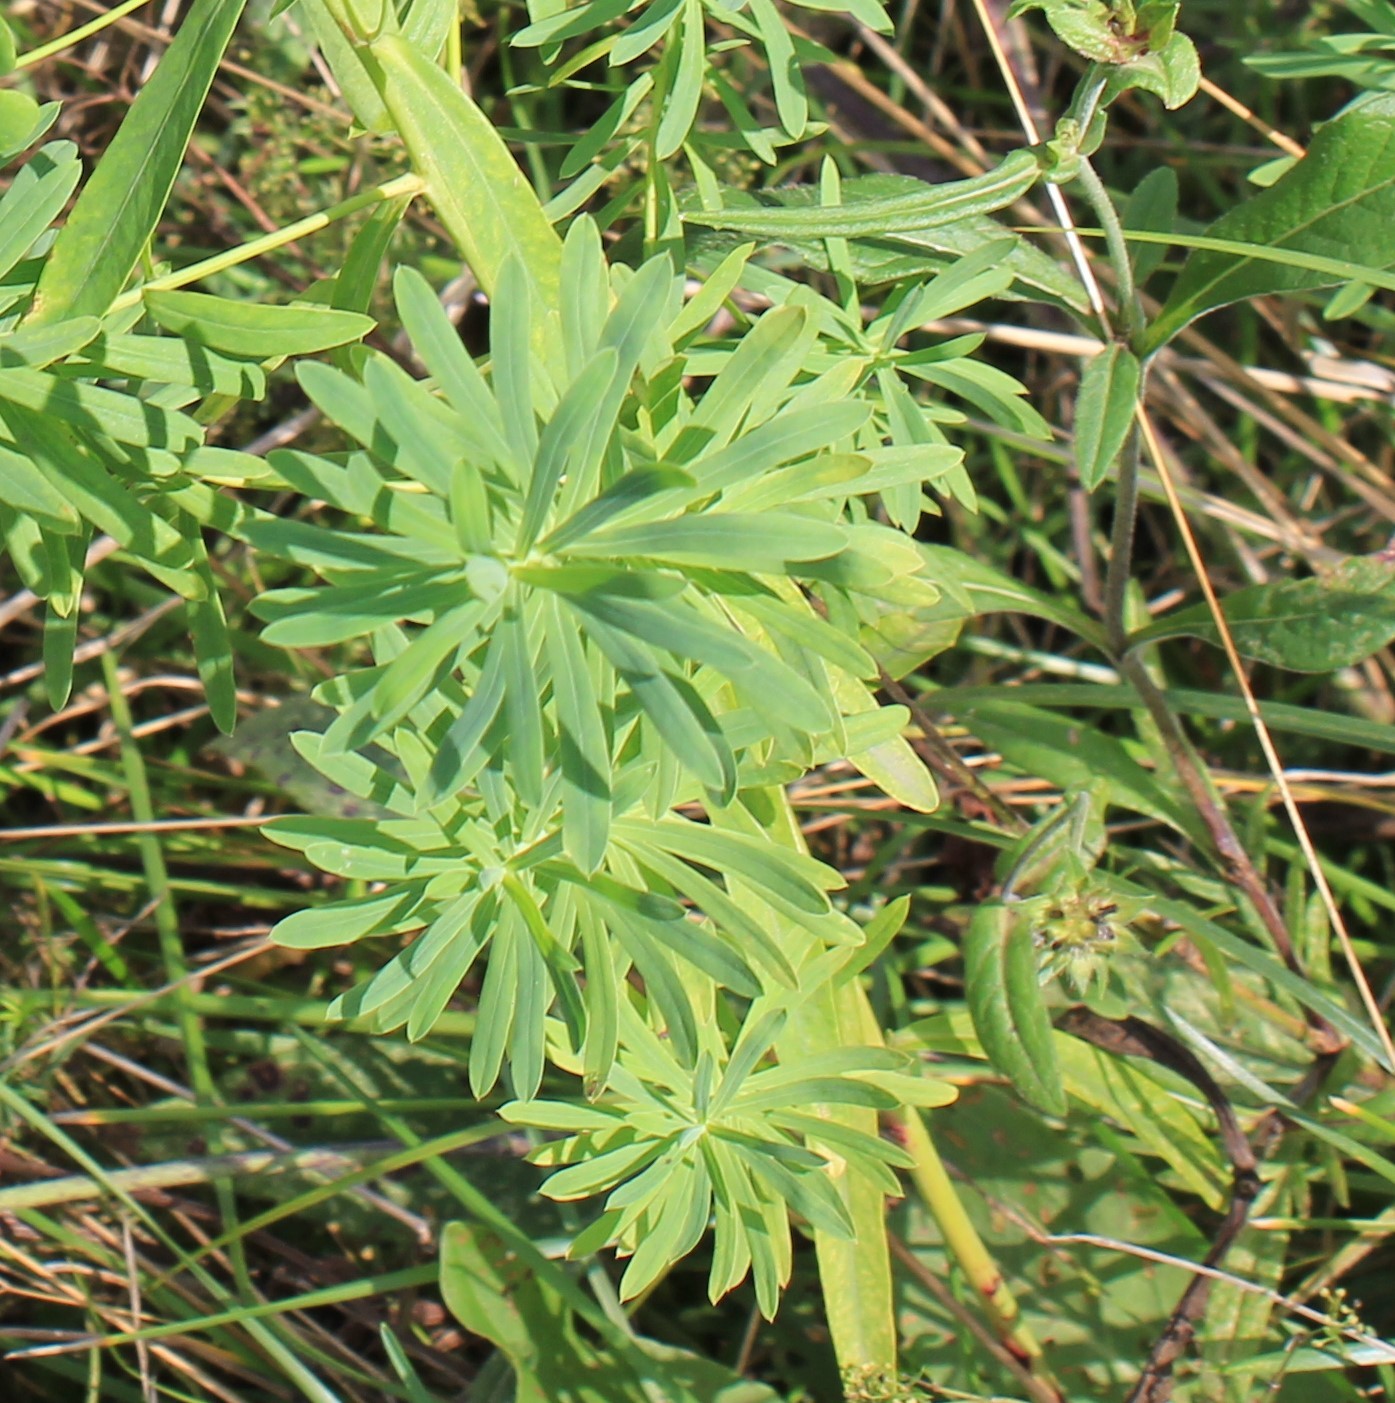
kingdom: Plantae
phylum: Tracheophyta
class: Magnoliopsida
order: Malpighiales
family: Euphorbiaceae
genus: Euphorbia
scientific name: Euphorbia virgata
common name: Leafy spurge
